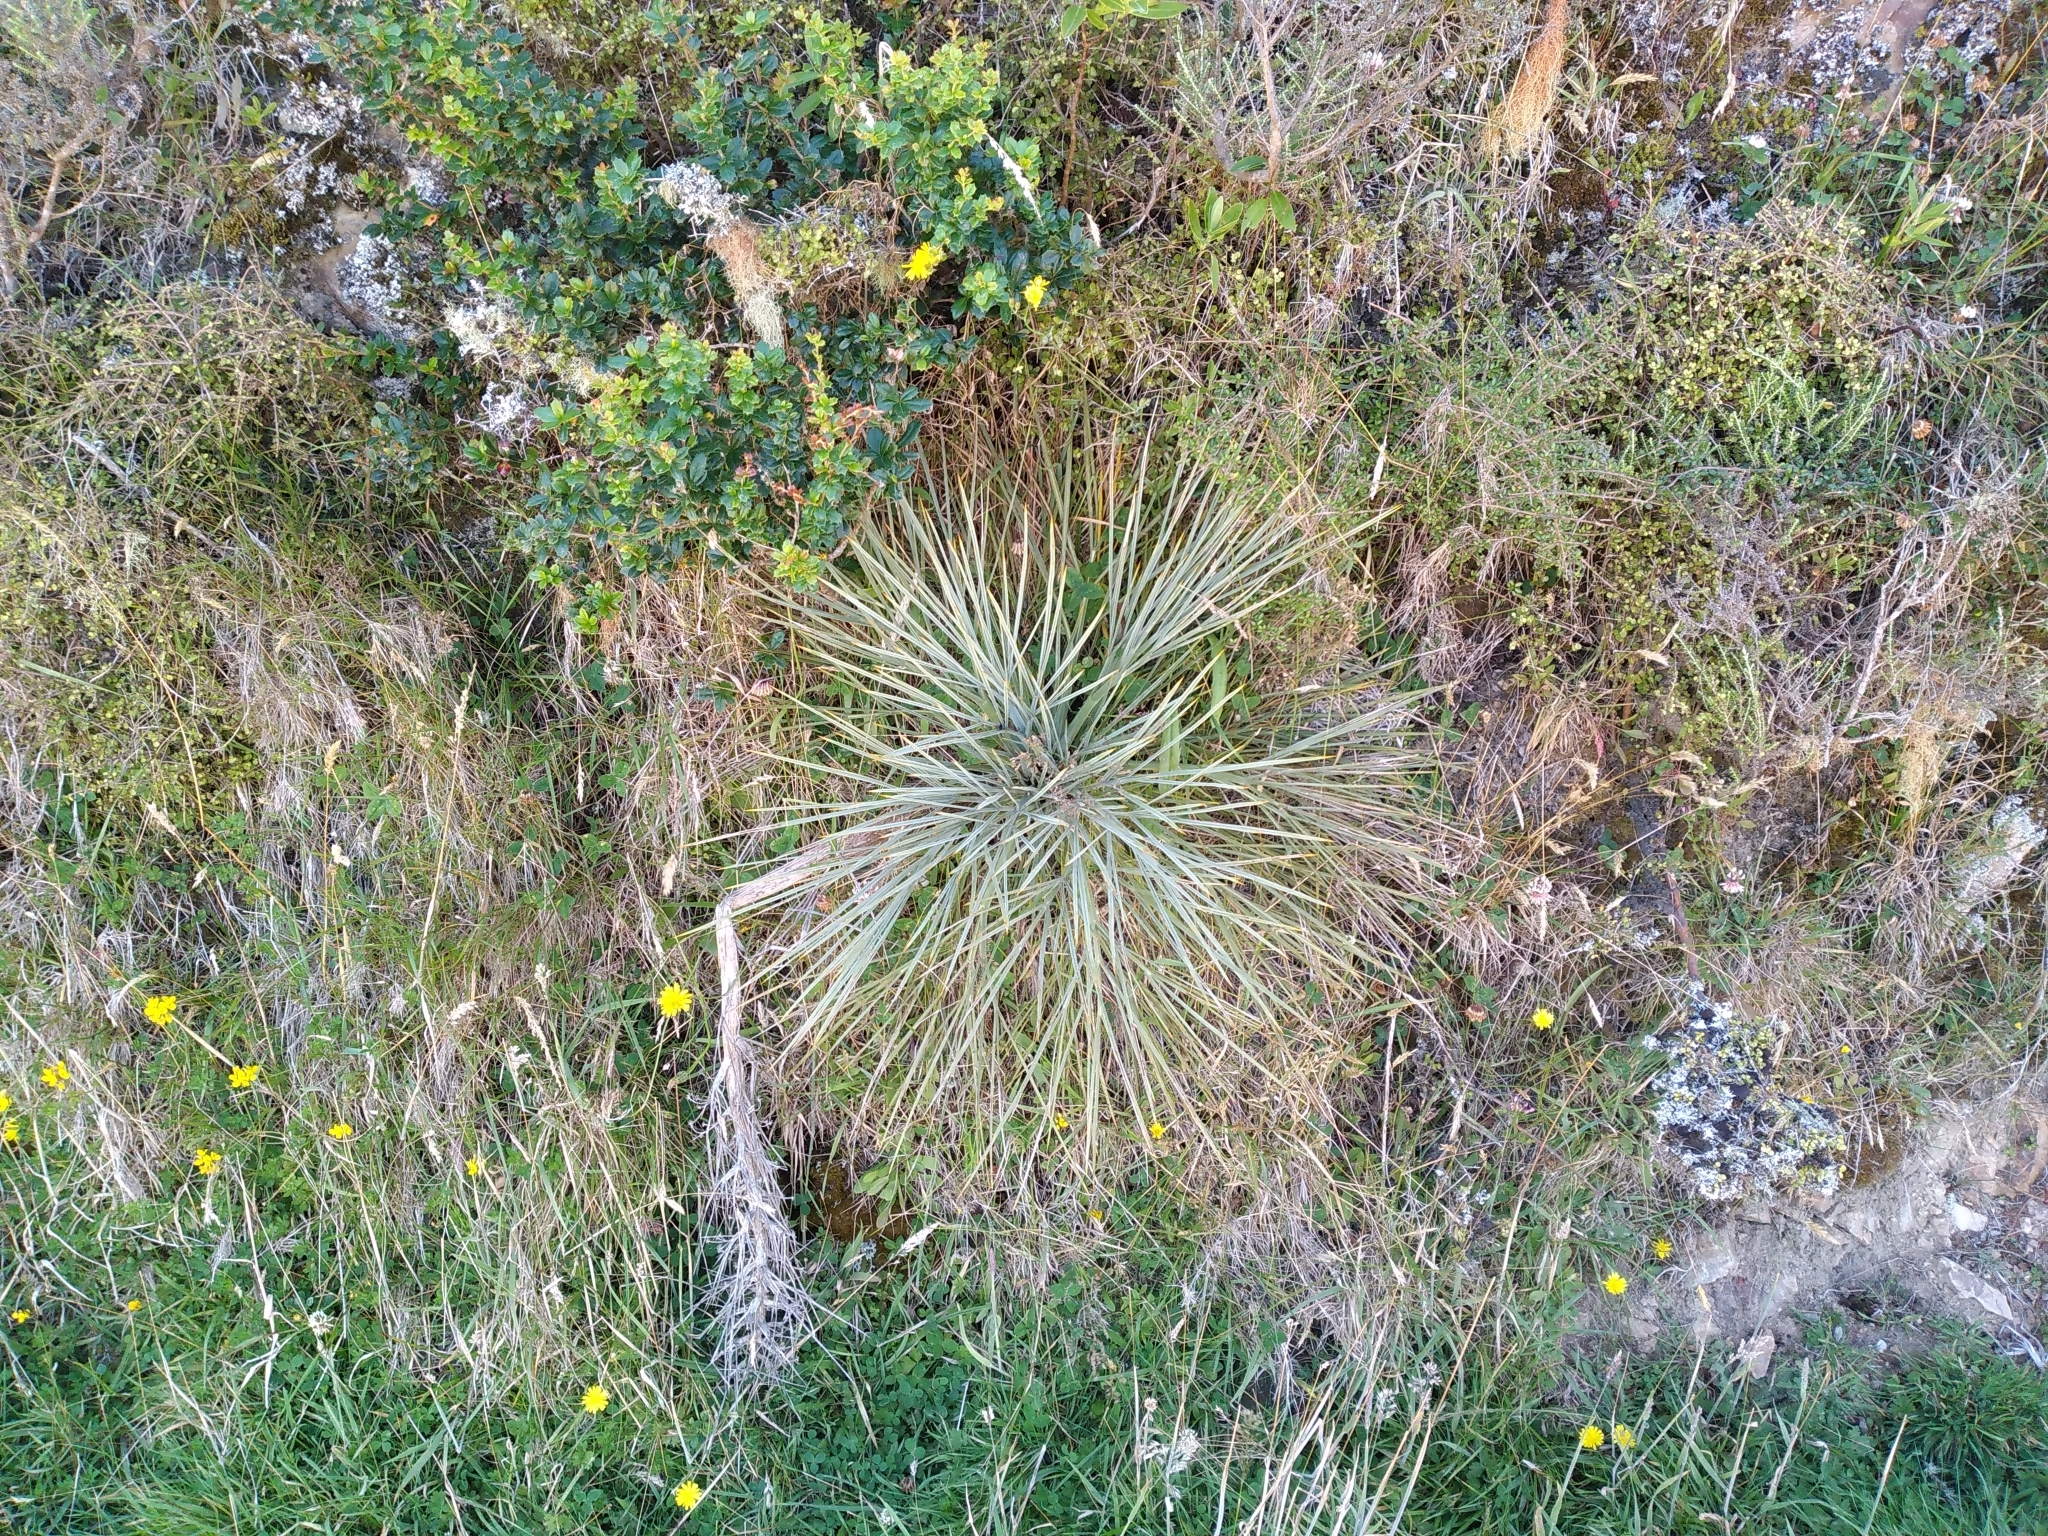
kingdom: Plantae
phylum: Tracheophyta
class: Magnoliopsida
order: Apiales
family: Apiaceae
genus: Aciphylla
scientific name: Aciphylla squarrosa
